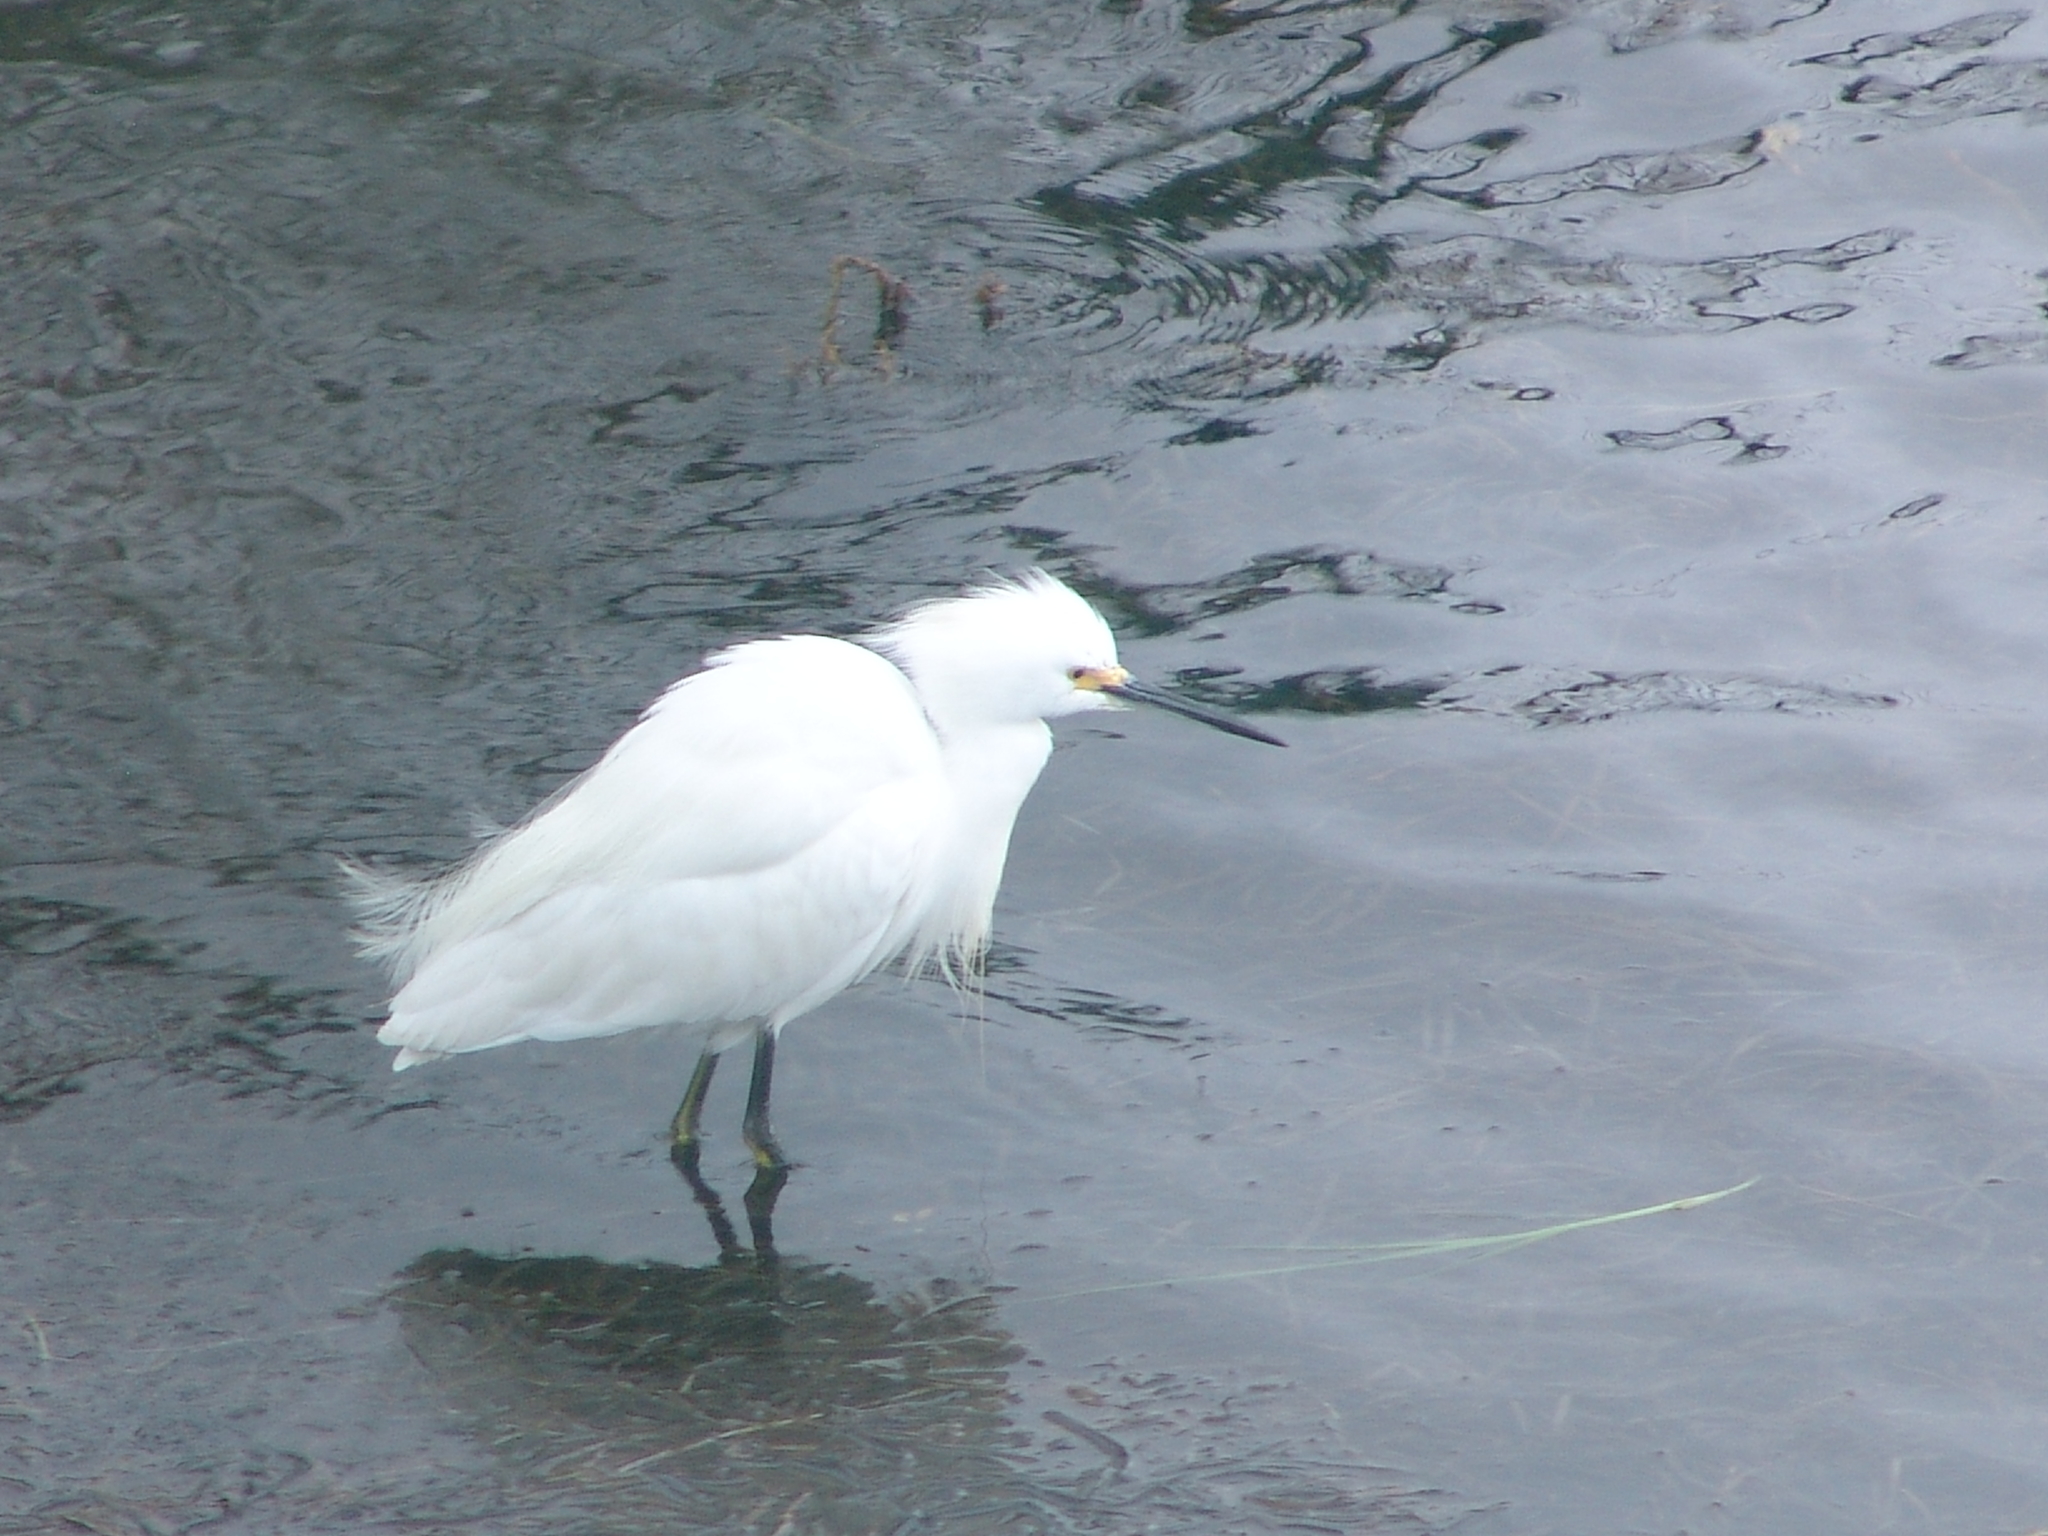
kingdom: Animalia
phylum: Chordata
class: Aves
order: Pelecaniformes
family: Ardeidae
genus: Egretta
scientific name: Egretta thula
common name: Snowy egret
